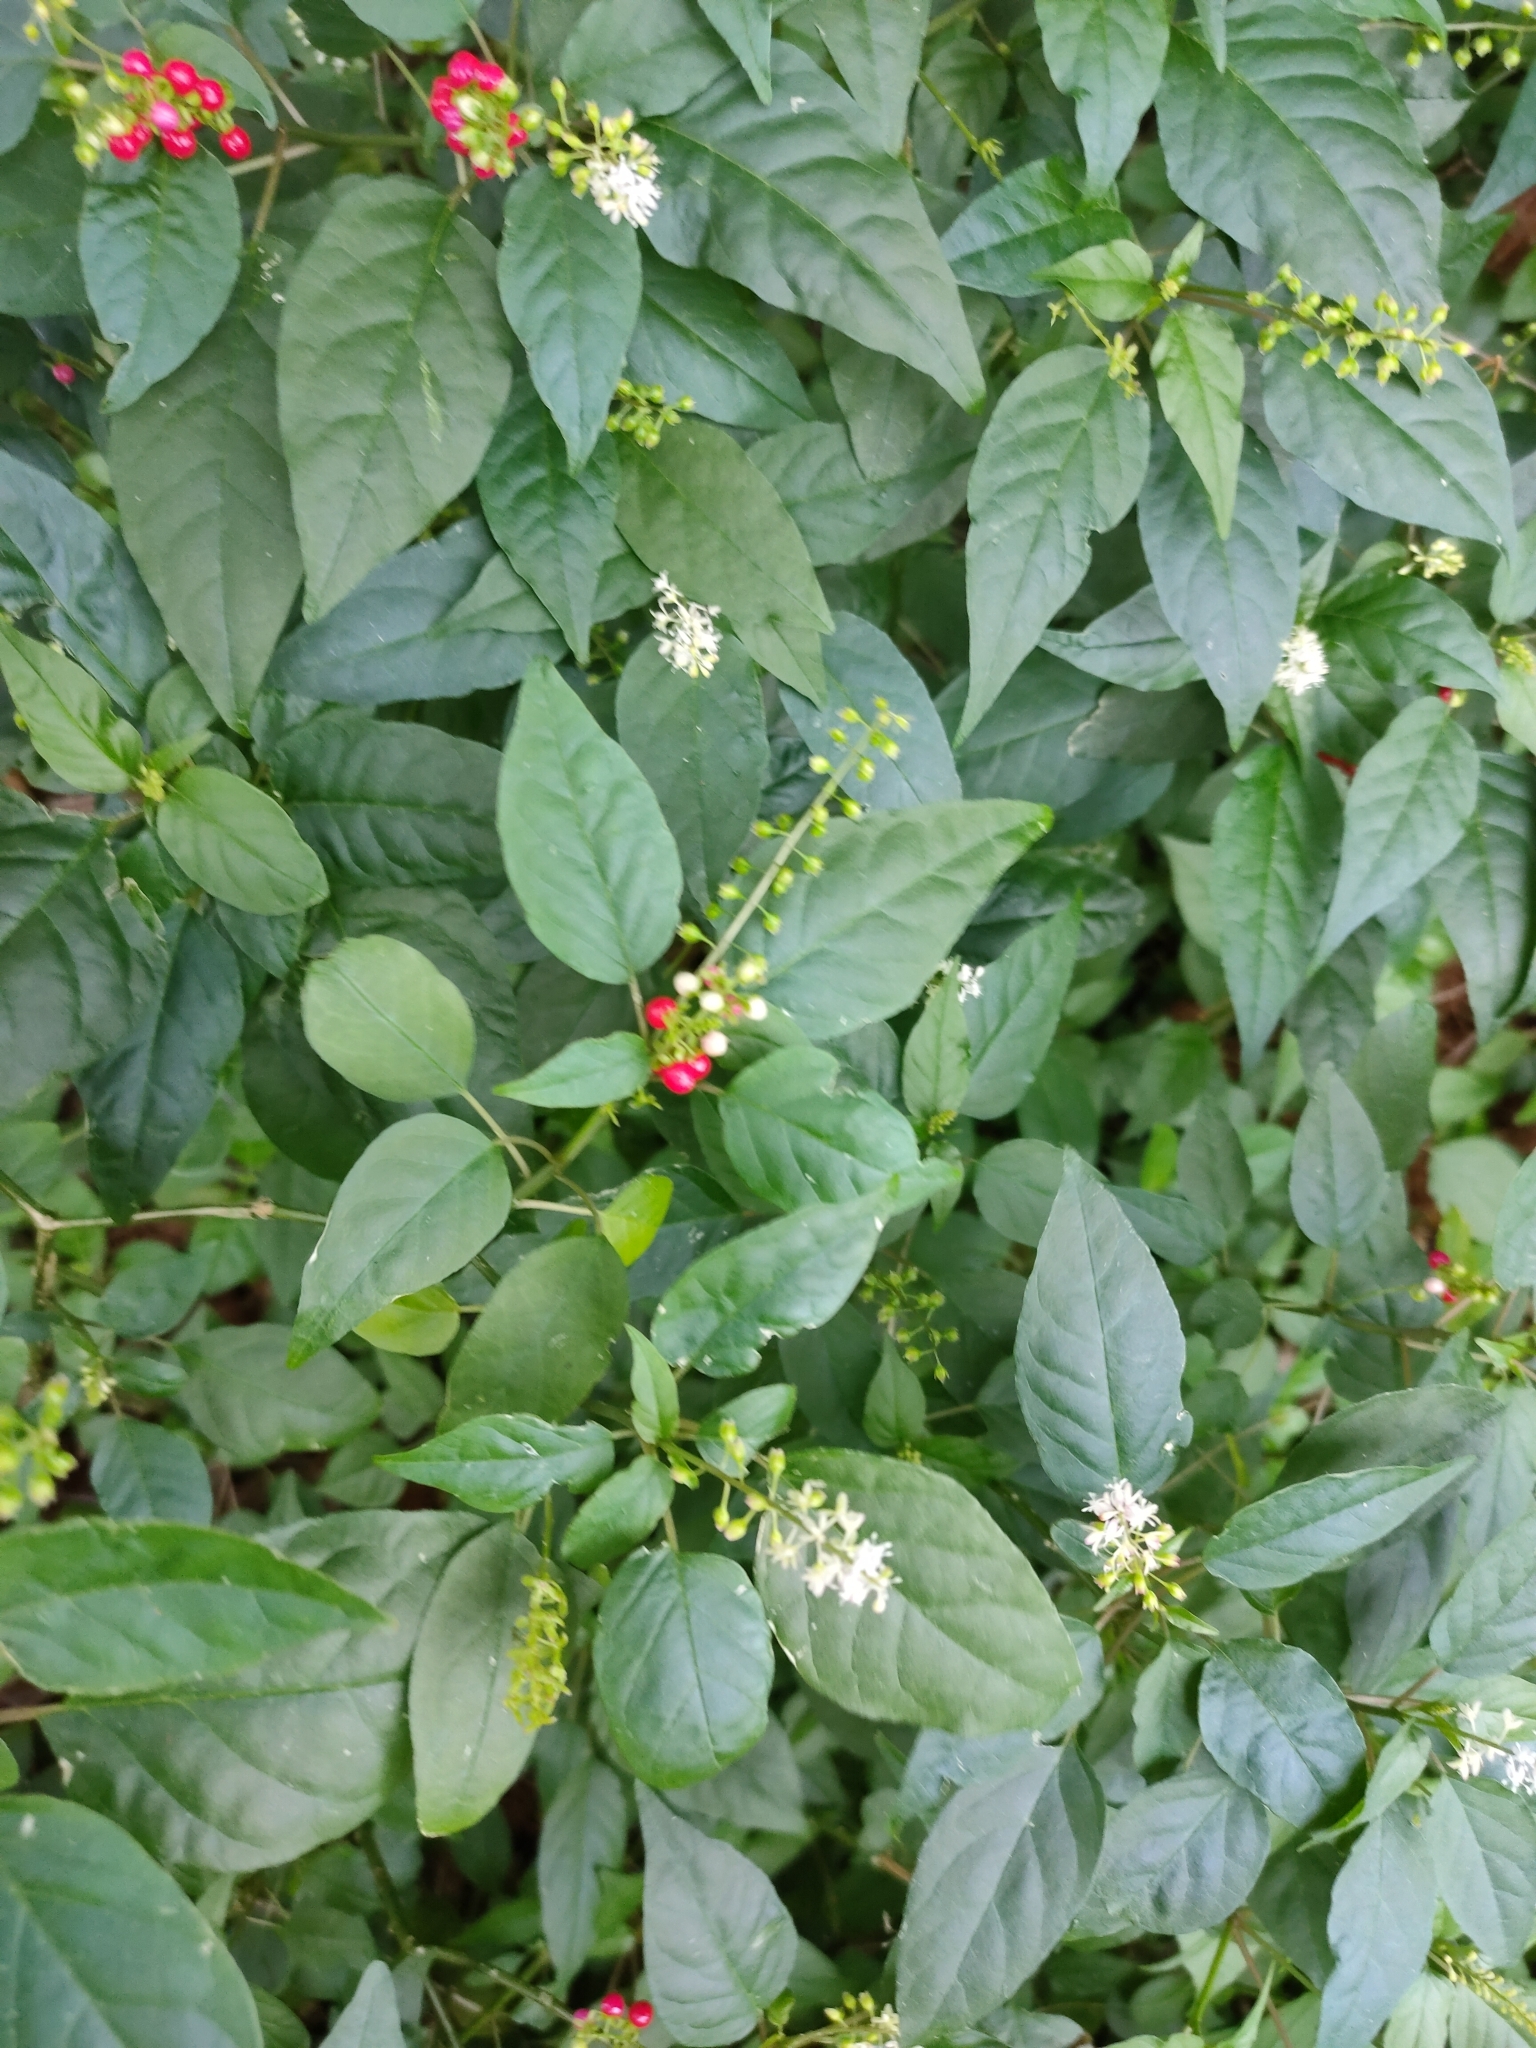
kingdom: Plantae
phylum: Tracheophyta
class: Magnoliopsida
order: Caryophyllales
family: Phytolaccaceae
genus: Rivina
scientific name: Rivina humilis
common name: Rougeplant
